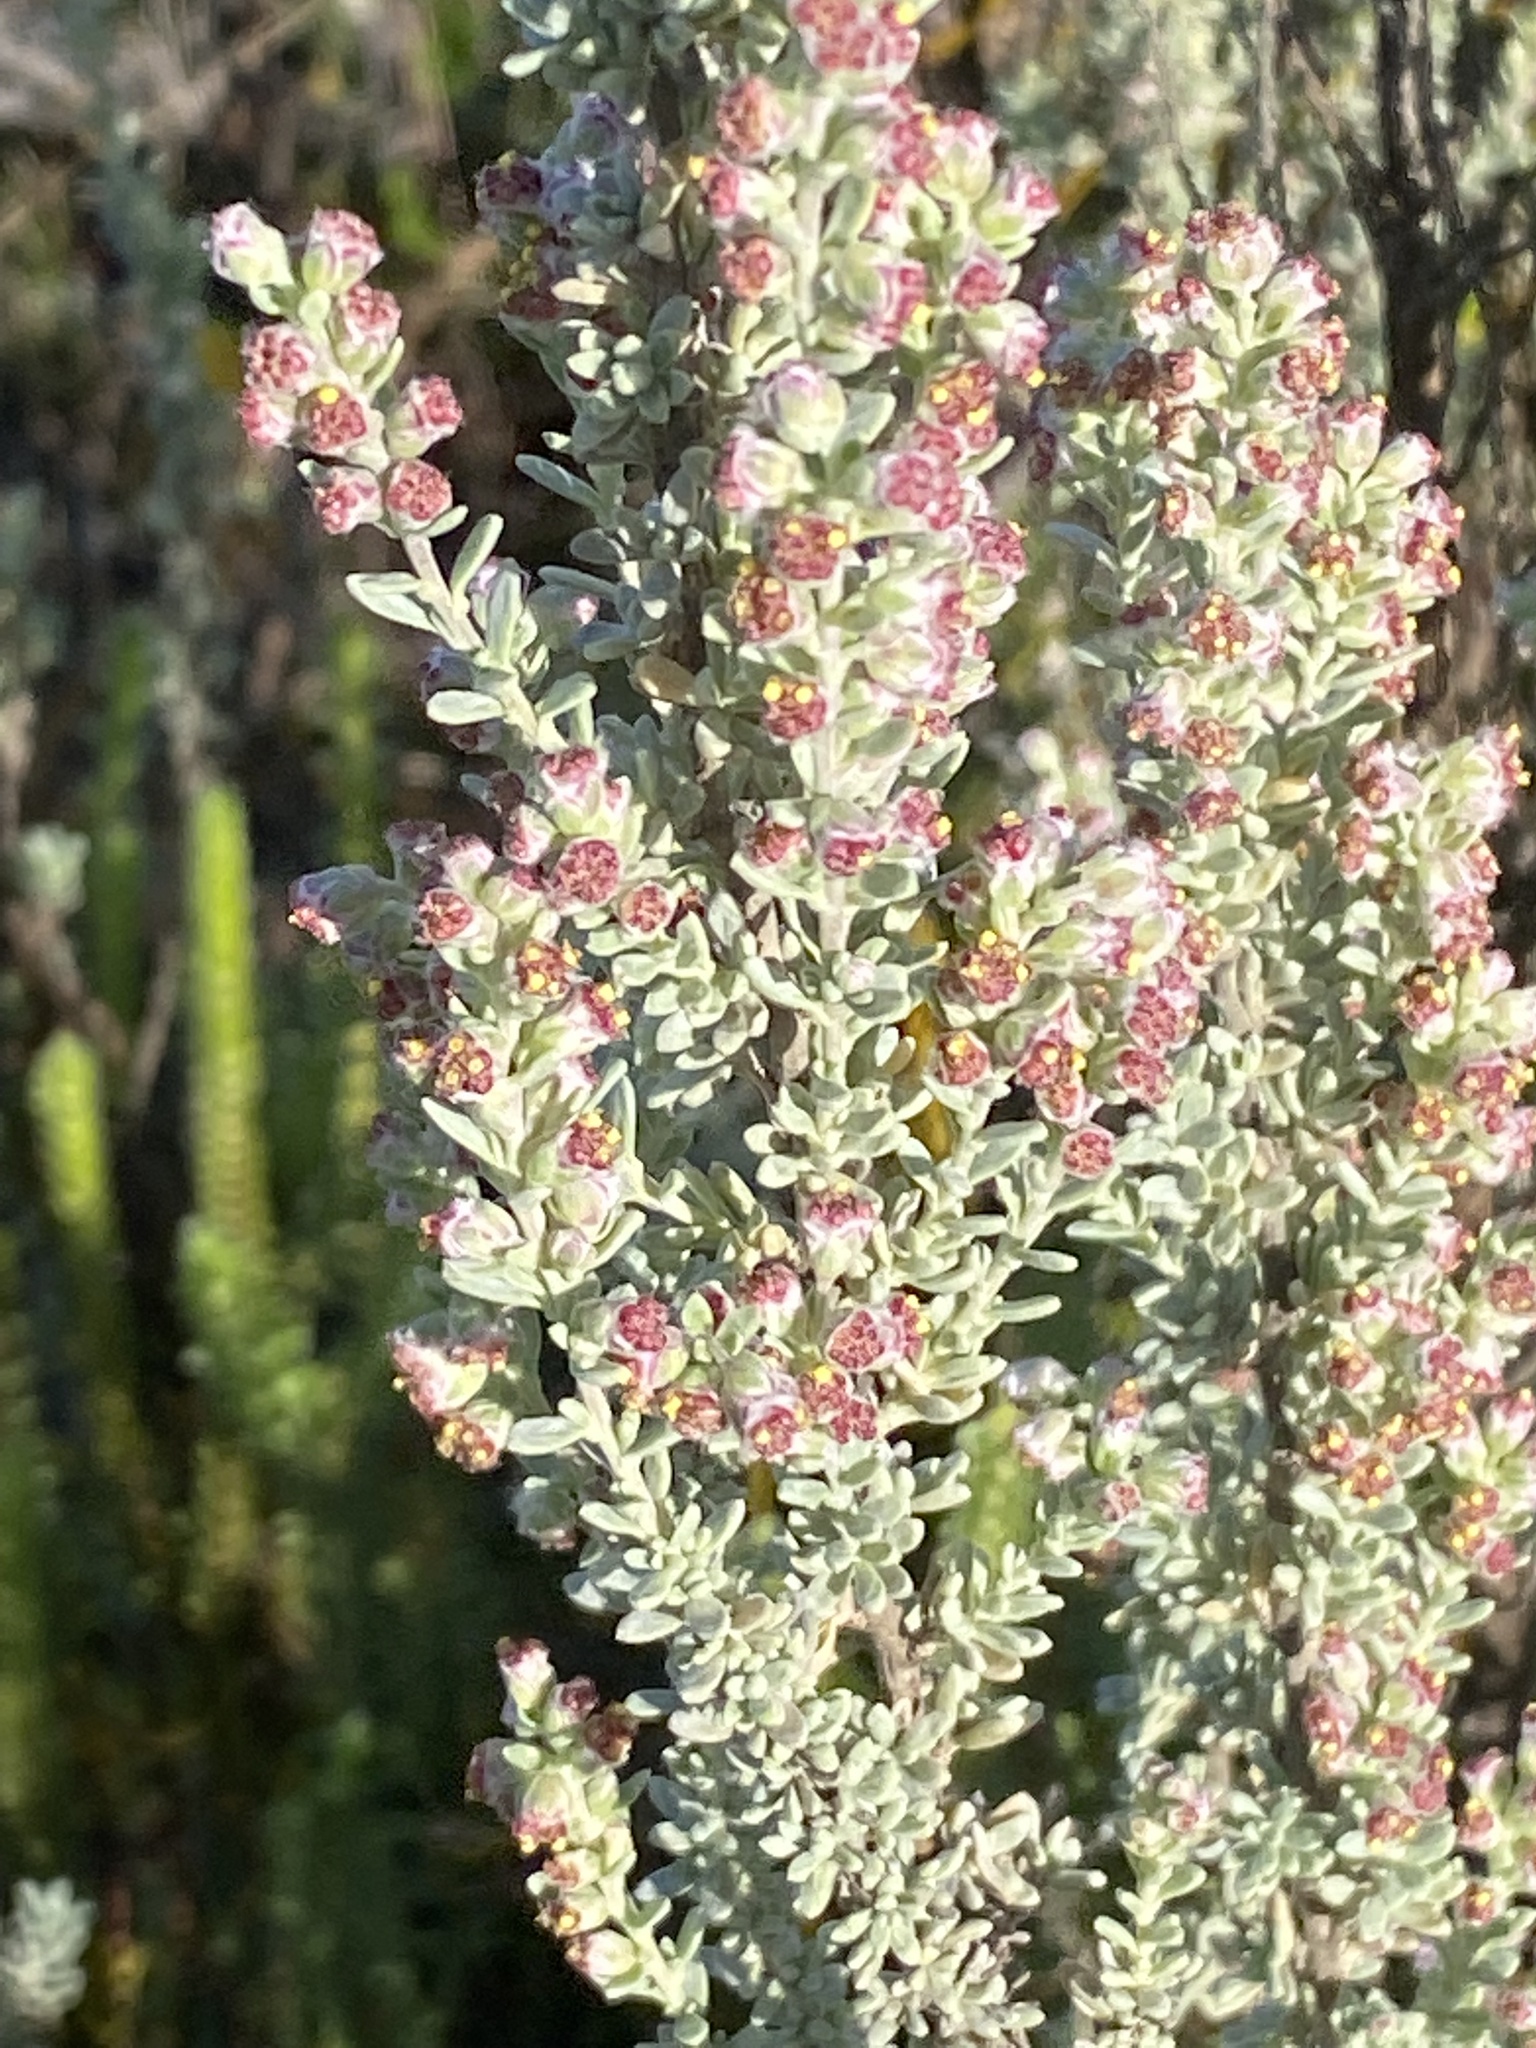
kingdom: Plantae
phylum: Tracheophyta
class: Magnoliopsida
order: Asterales
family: Asteraceae
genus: Eriocephalus
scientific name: Eriocephalus racemosus
